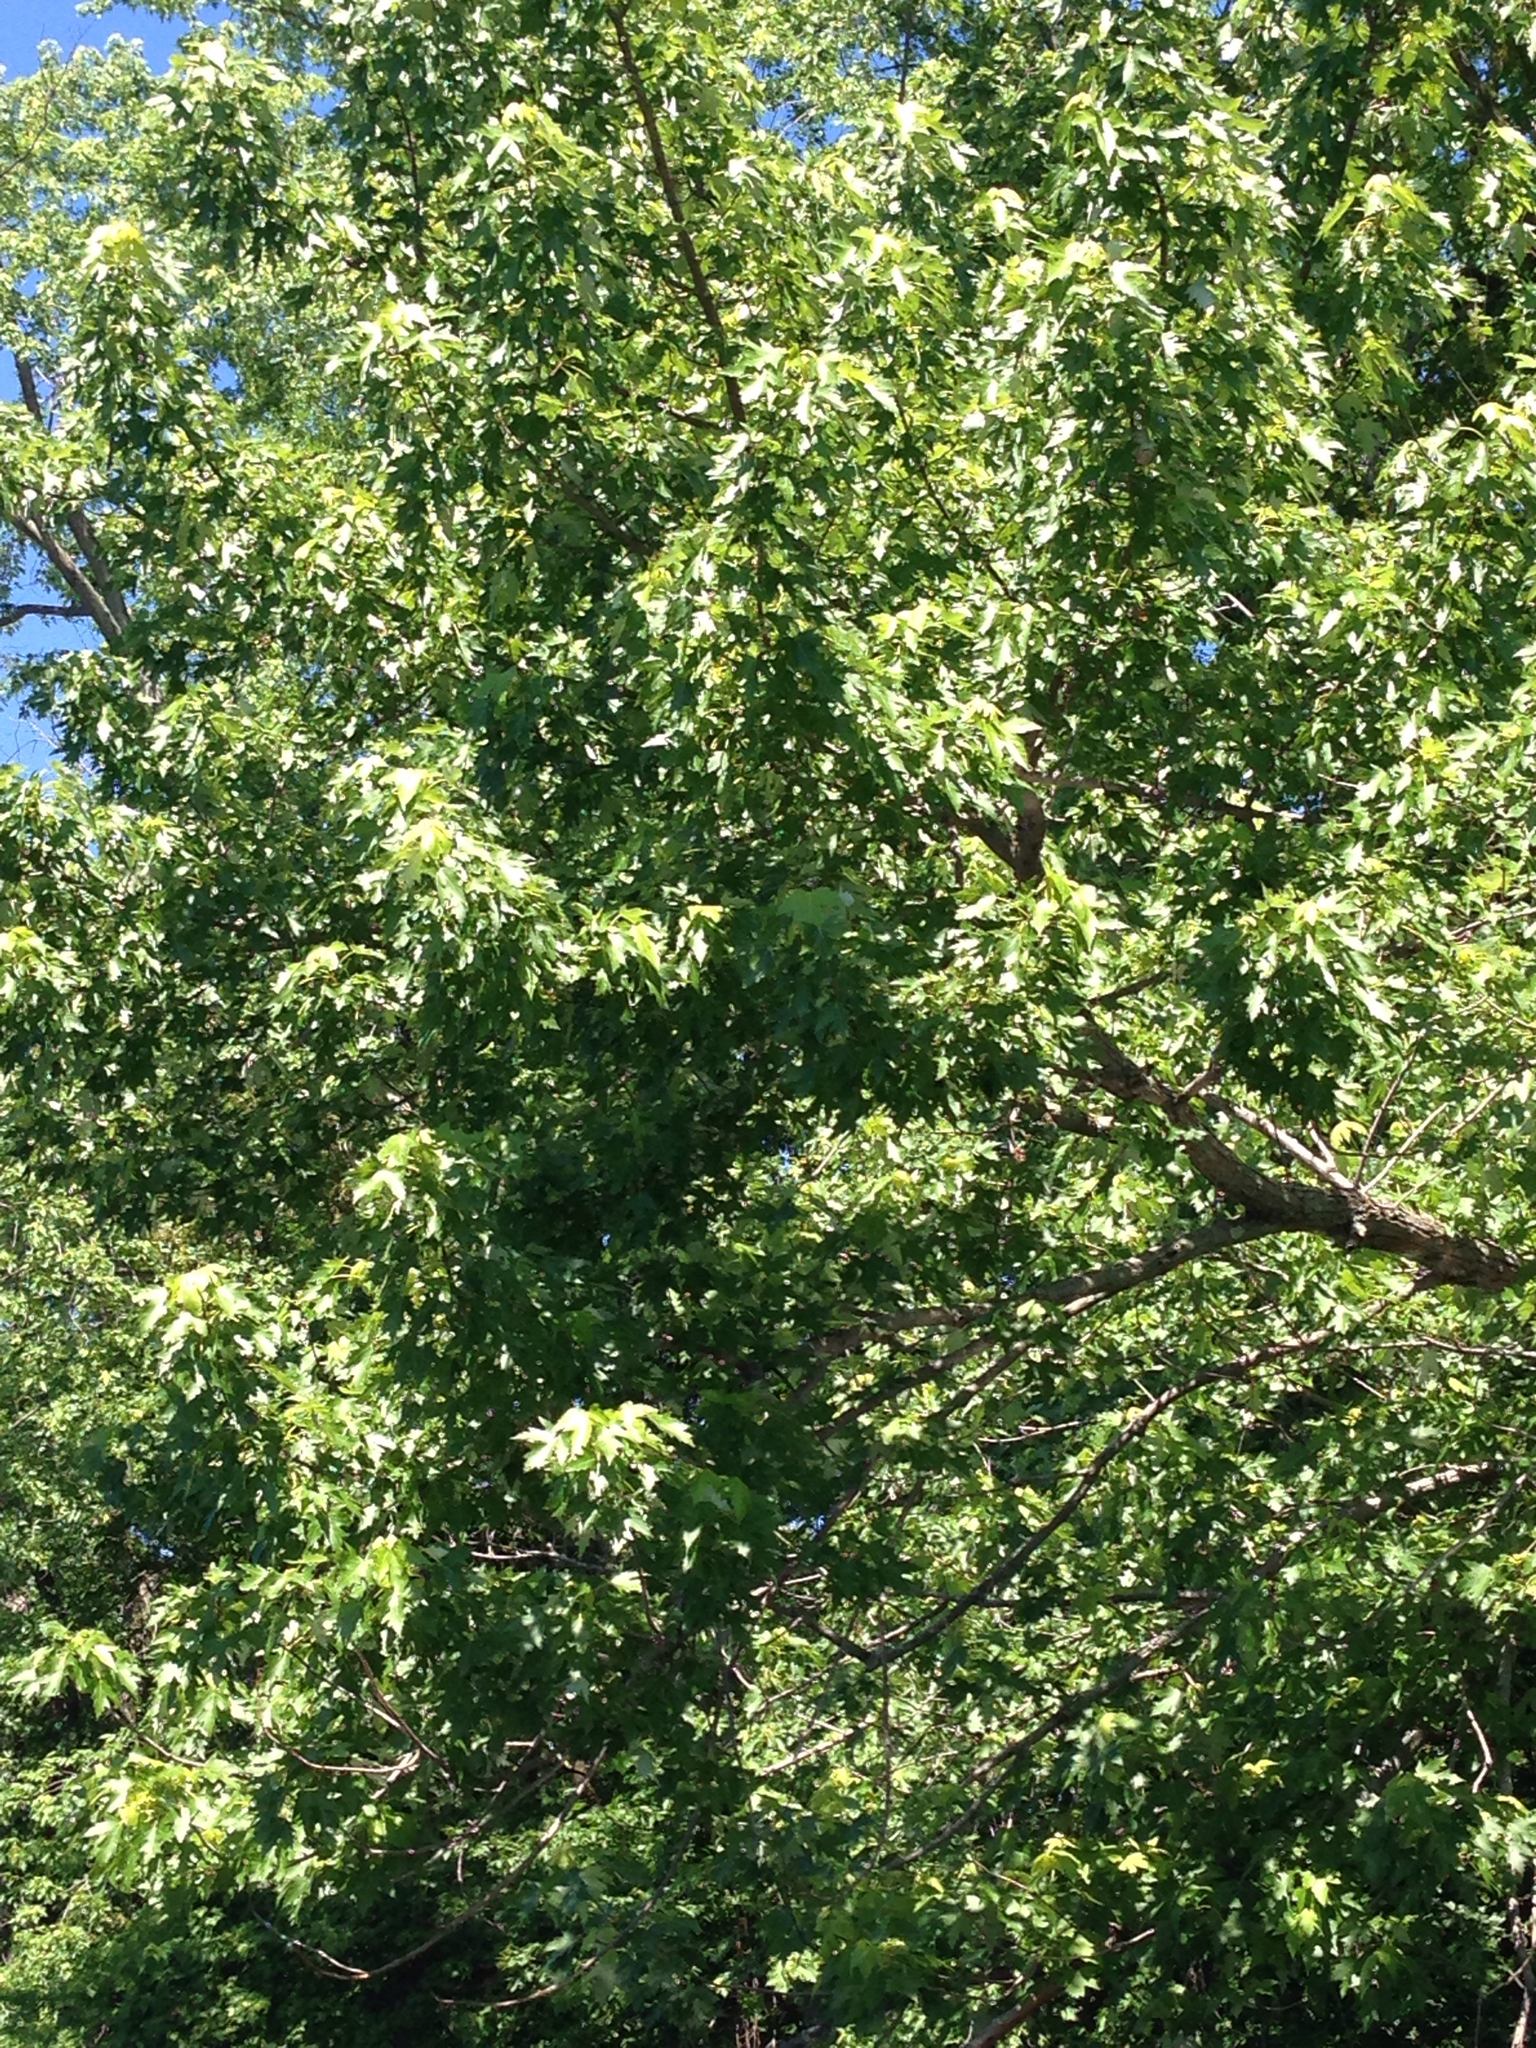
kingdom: Plantae
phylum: Tracheophyta
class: Magnoliopsida
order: Sapindales
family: Sapindaceae
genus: Acer
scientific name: Acer saccharinum
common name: Silver maple
